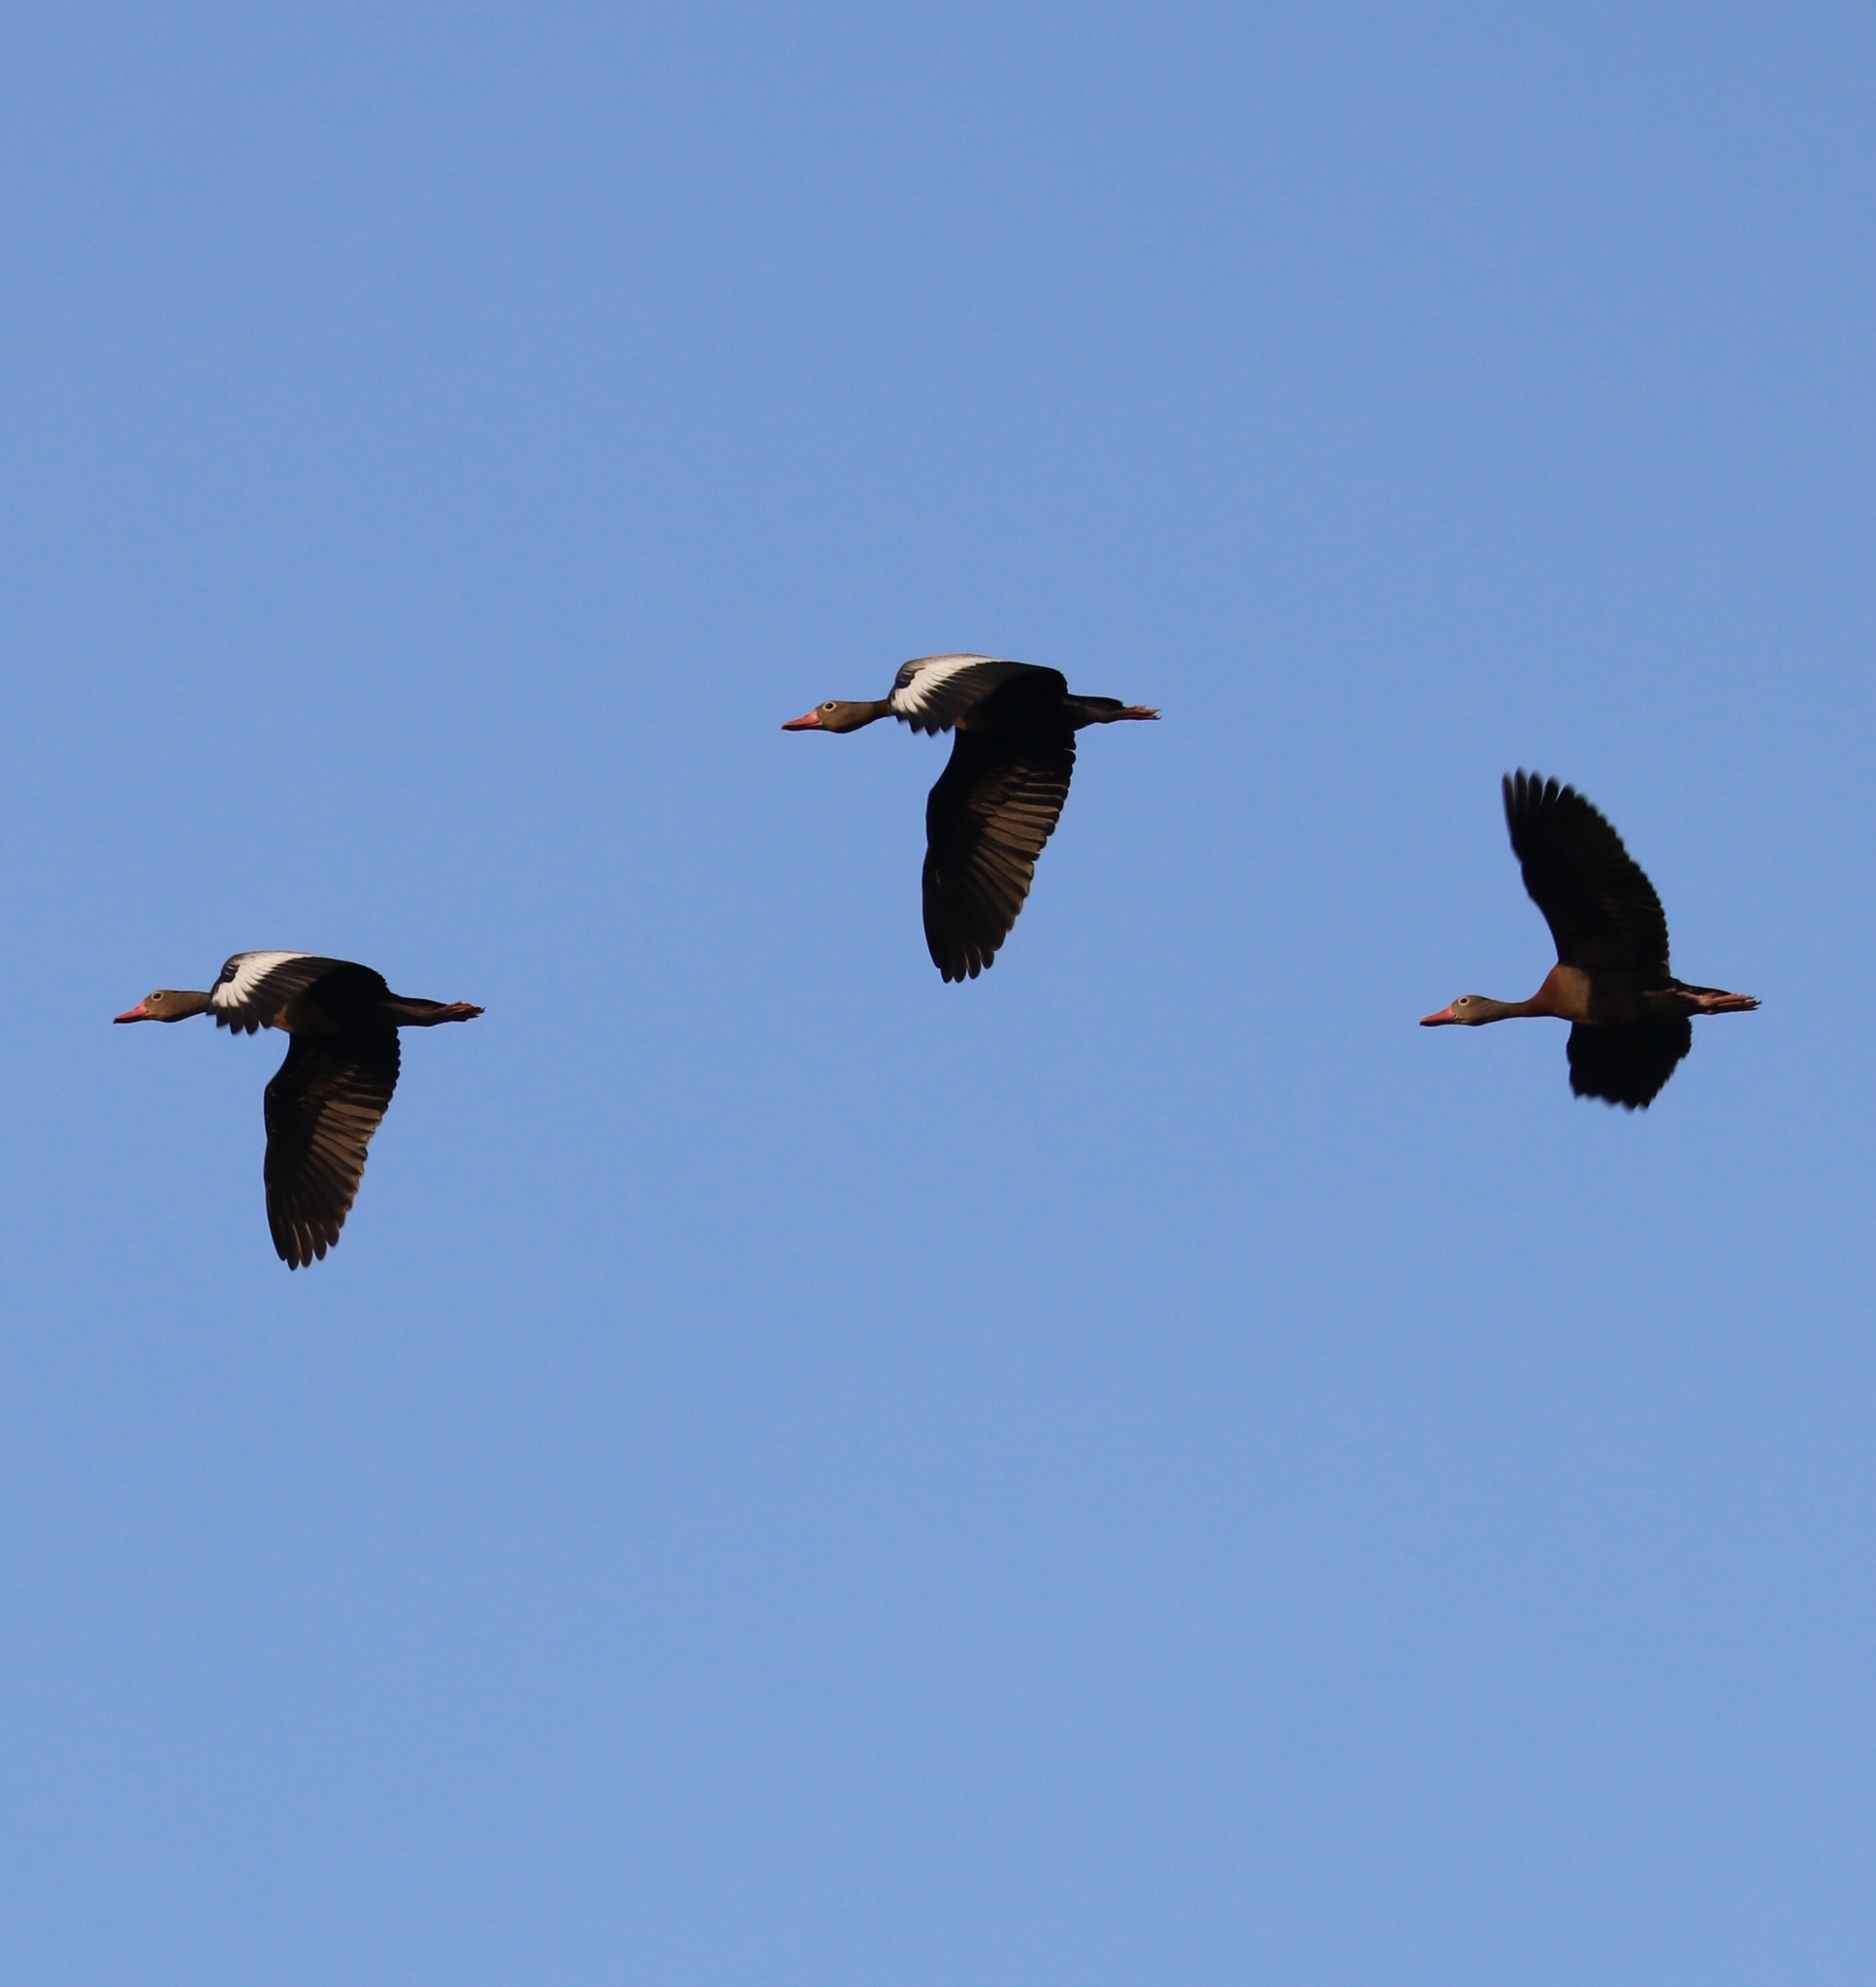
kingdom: Animalia
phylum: Chordata
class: Aves
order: Anseriformes
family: Anatidae
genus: Dendrocygna
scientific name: Dendrocygna autumnalis
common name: Black-bellied whistling duck
